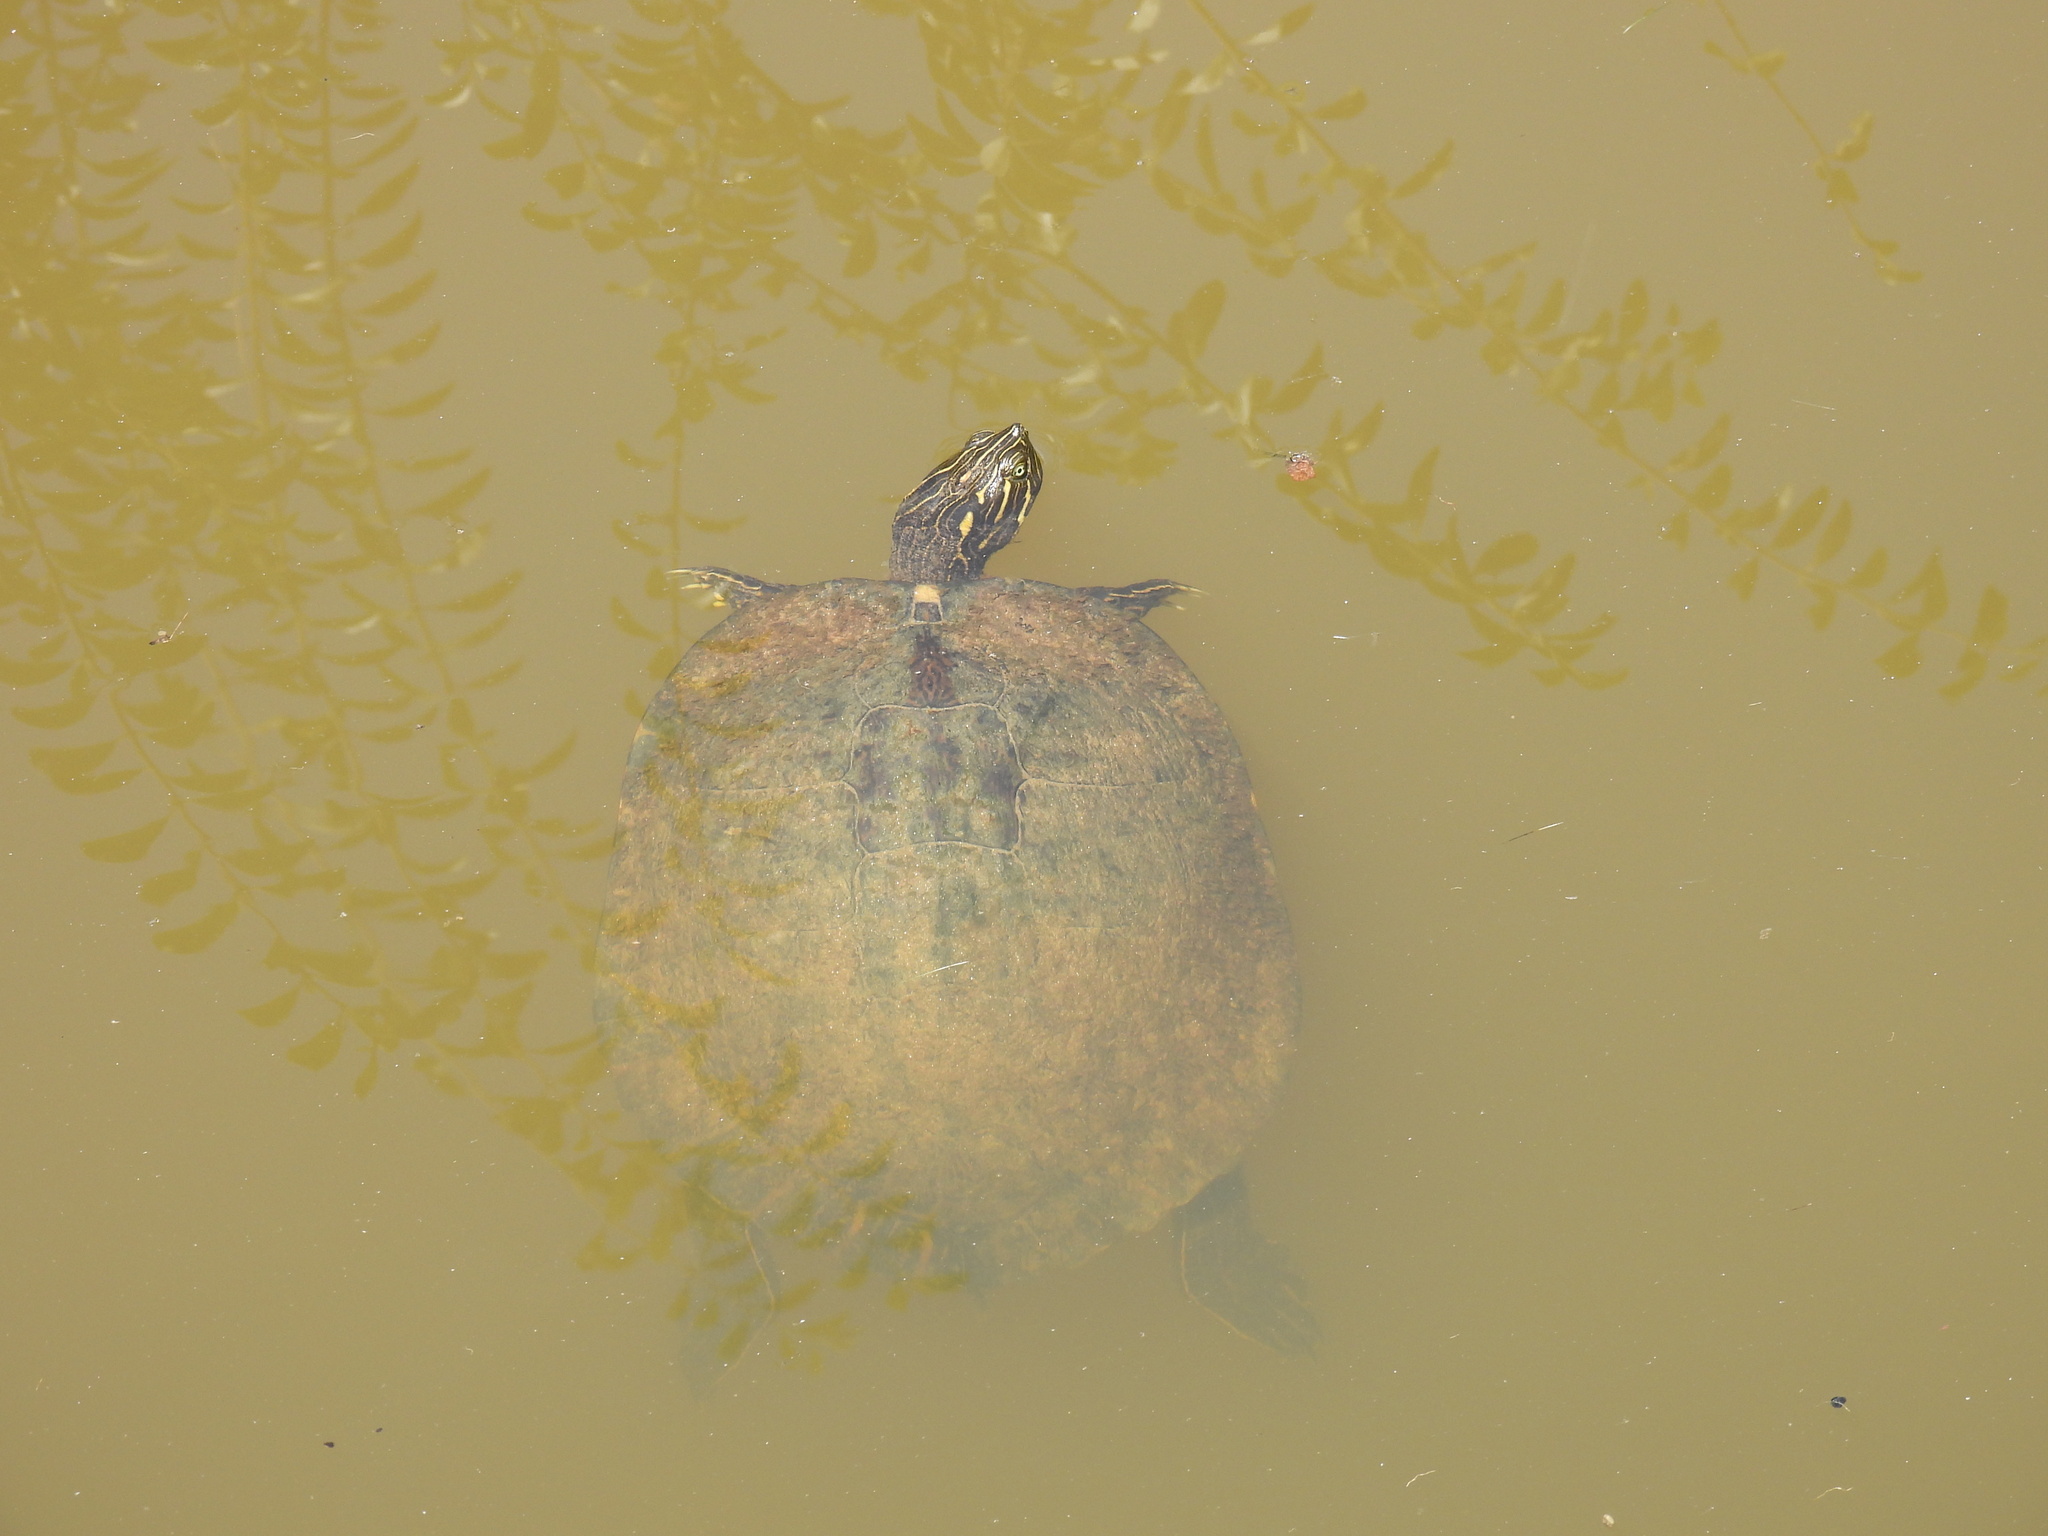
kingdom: Animalia
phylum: Chordata
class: Testudines
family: Emydidae
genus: Pseudemys
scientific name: Pseudemys concinna
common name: Eastern river cooter
